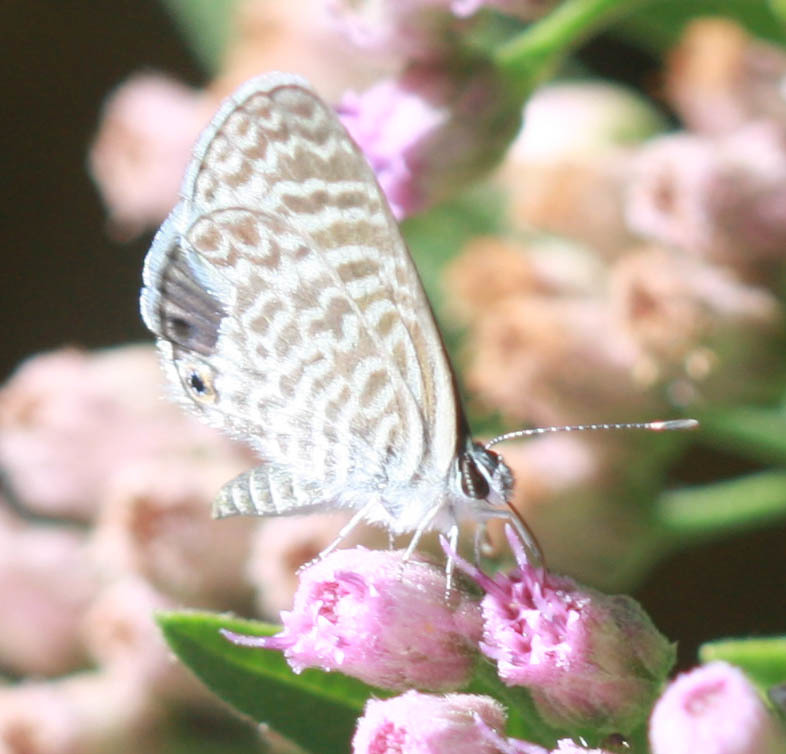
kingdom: Animalia
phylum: Arthropoda
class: Insecta
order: Lepidoptera
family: Lycaenidae
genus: Leptotes
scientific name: Leptotes marina
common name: Marine blue
